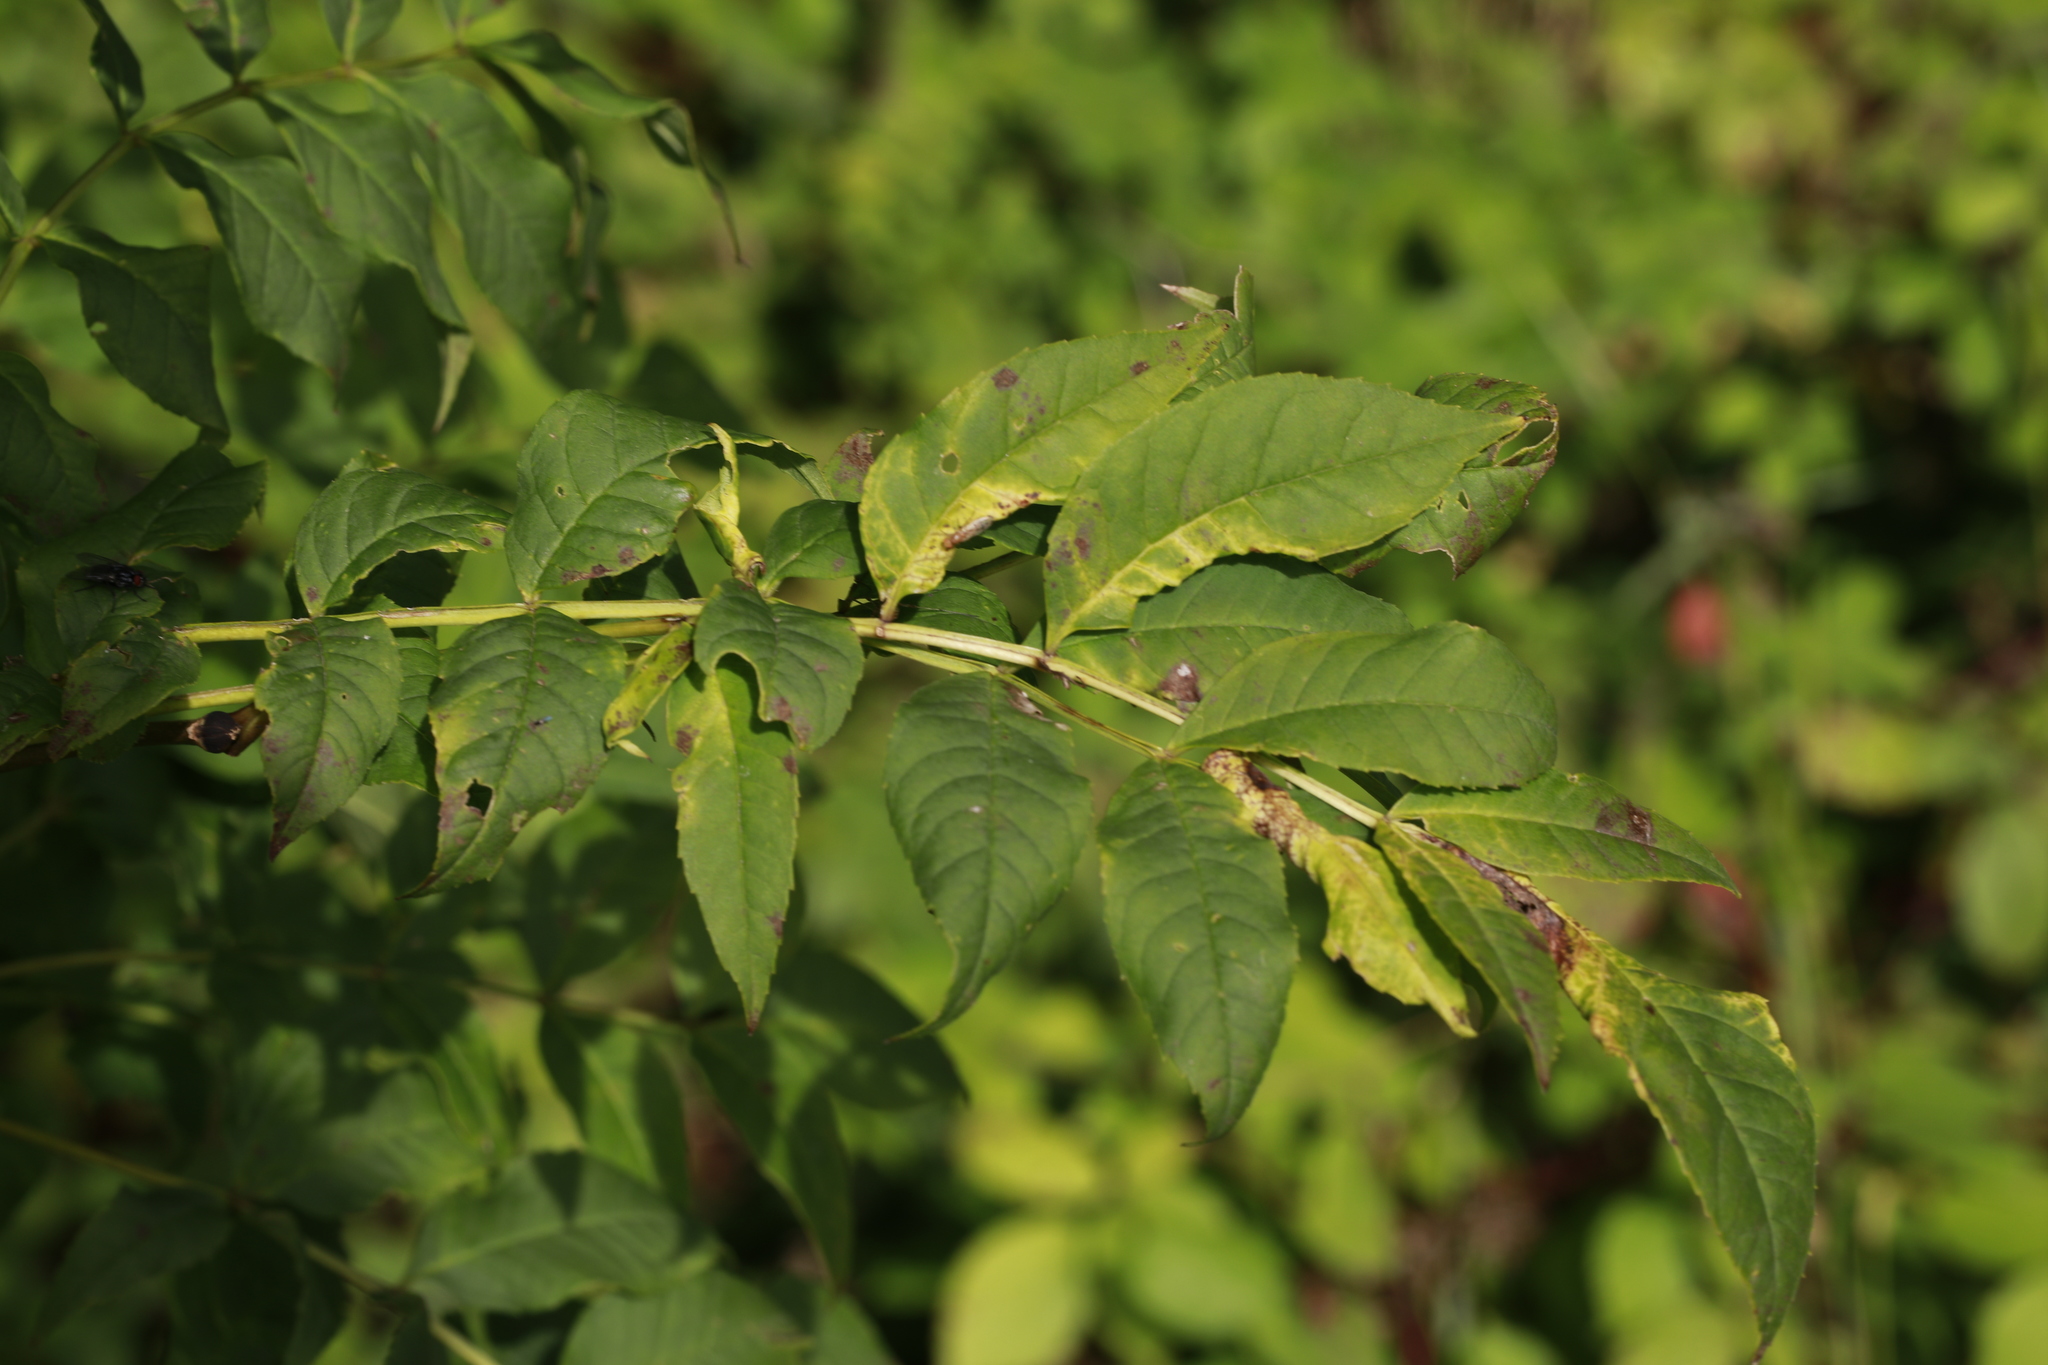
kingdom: Animalia
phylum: Arthropoda
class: Insecta
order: Hemiptera
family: Liviidae
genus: Psyllopsis
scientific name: Psyllopsis fraxini
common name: Jumping plant louse
